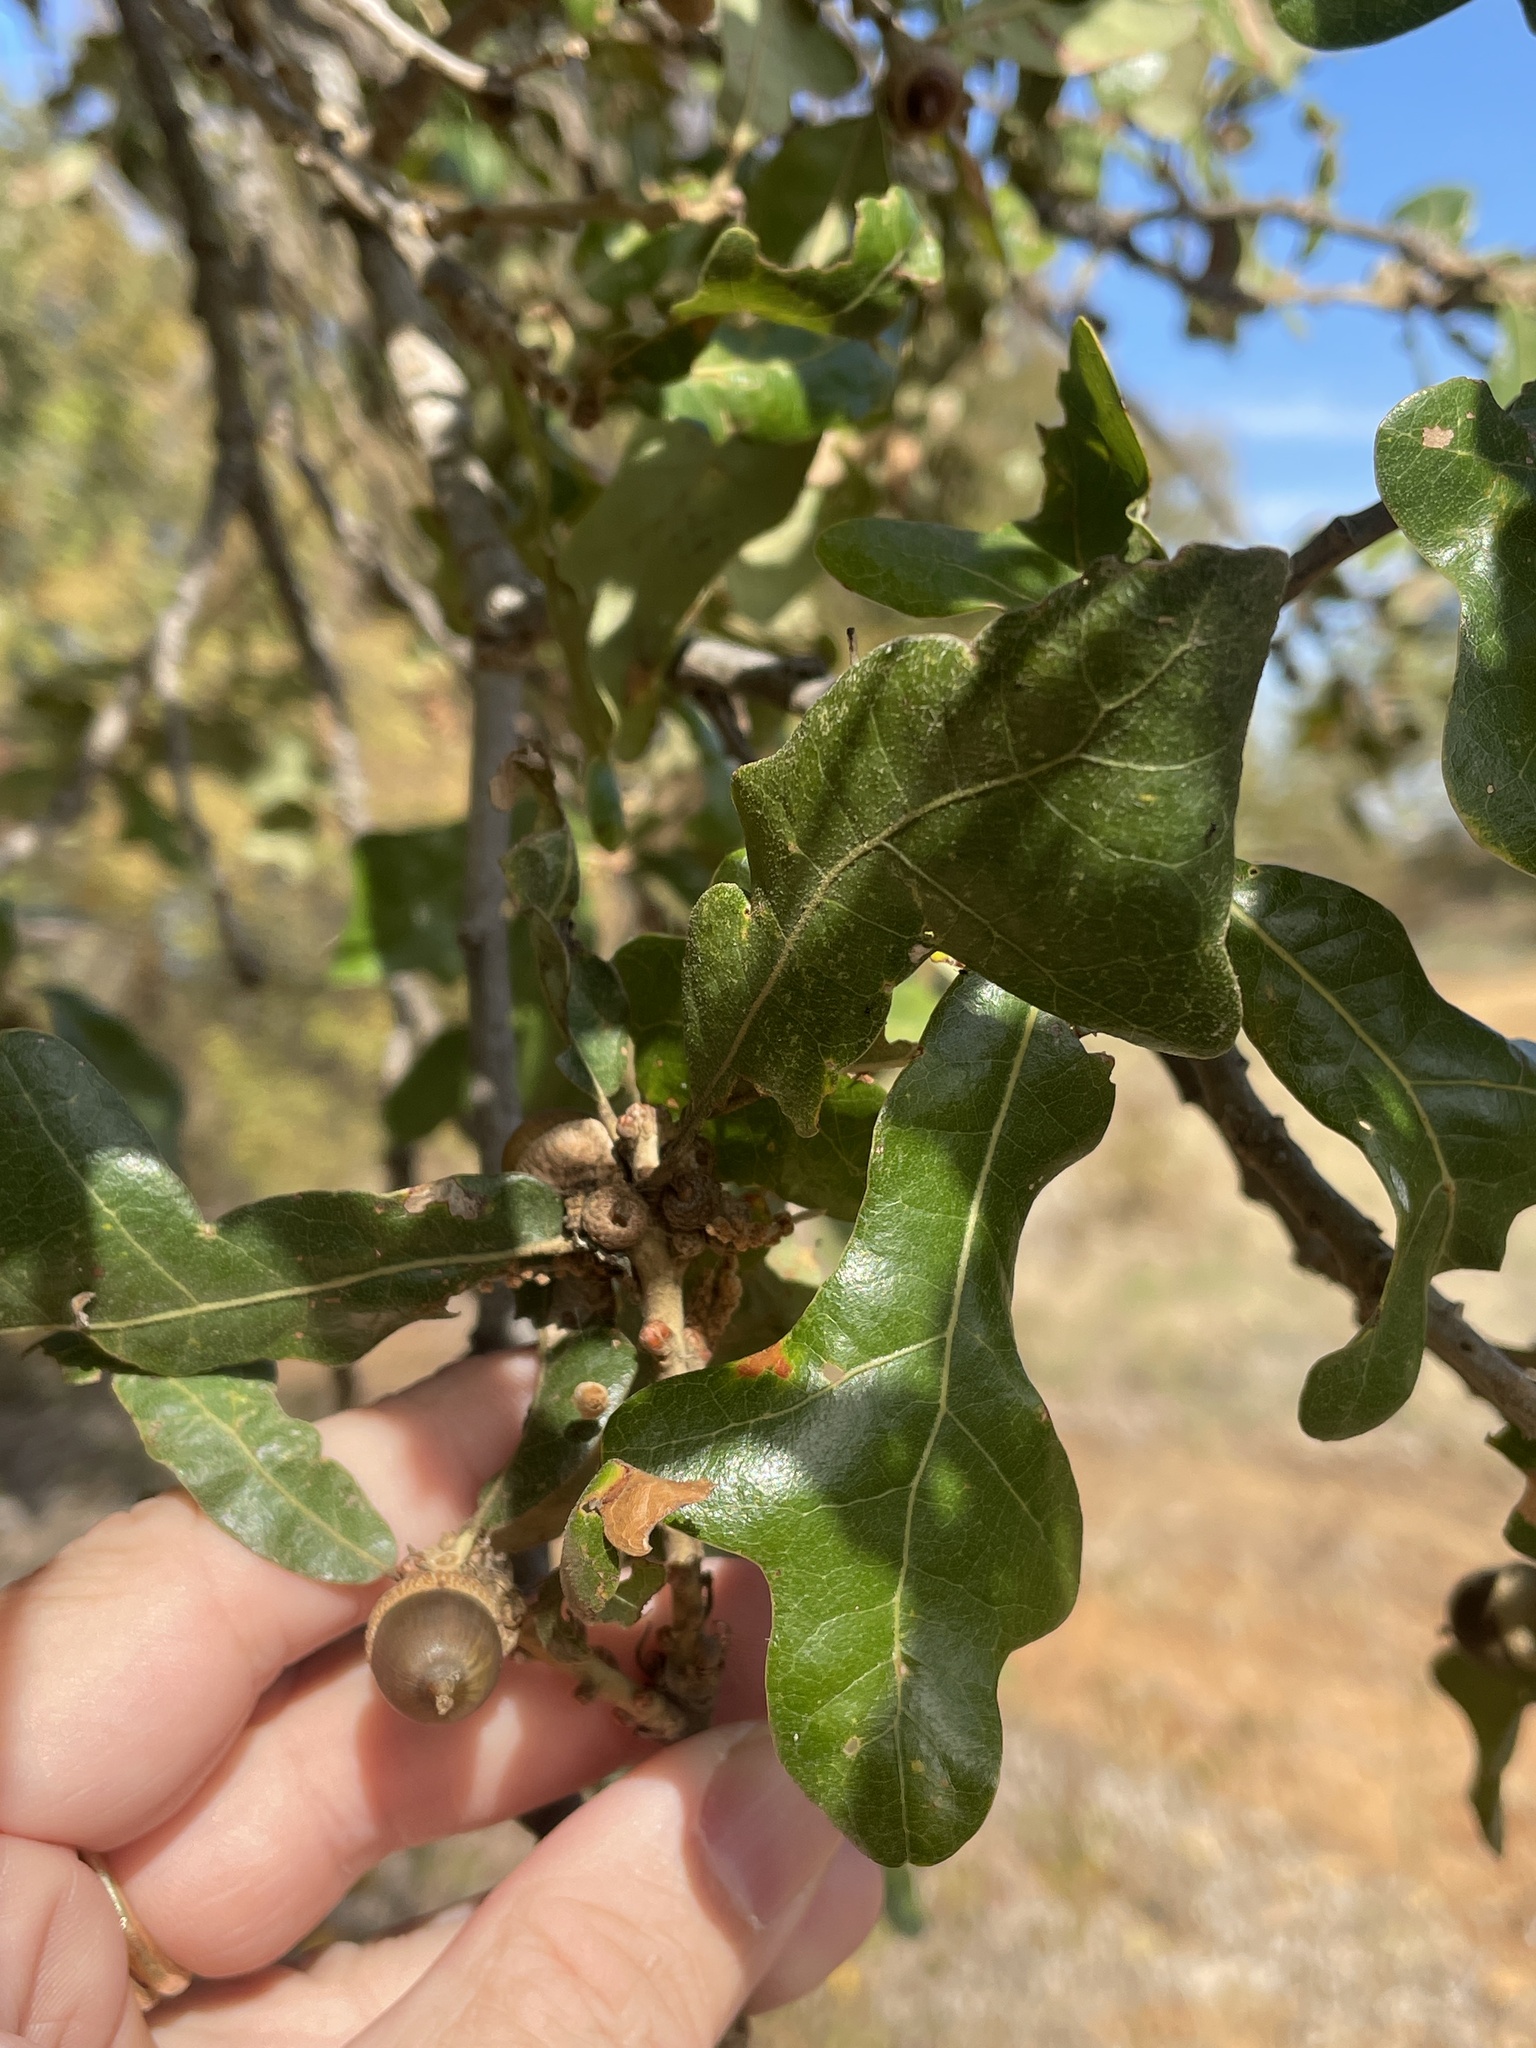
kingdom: Plantae
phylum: Tracheophyta
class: Magnoliopsida
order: Fagales
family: Fagaceae
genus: Quercus
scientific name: Quercus stellata
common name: Post oak
